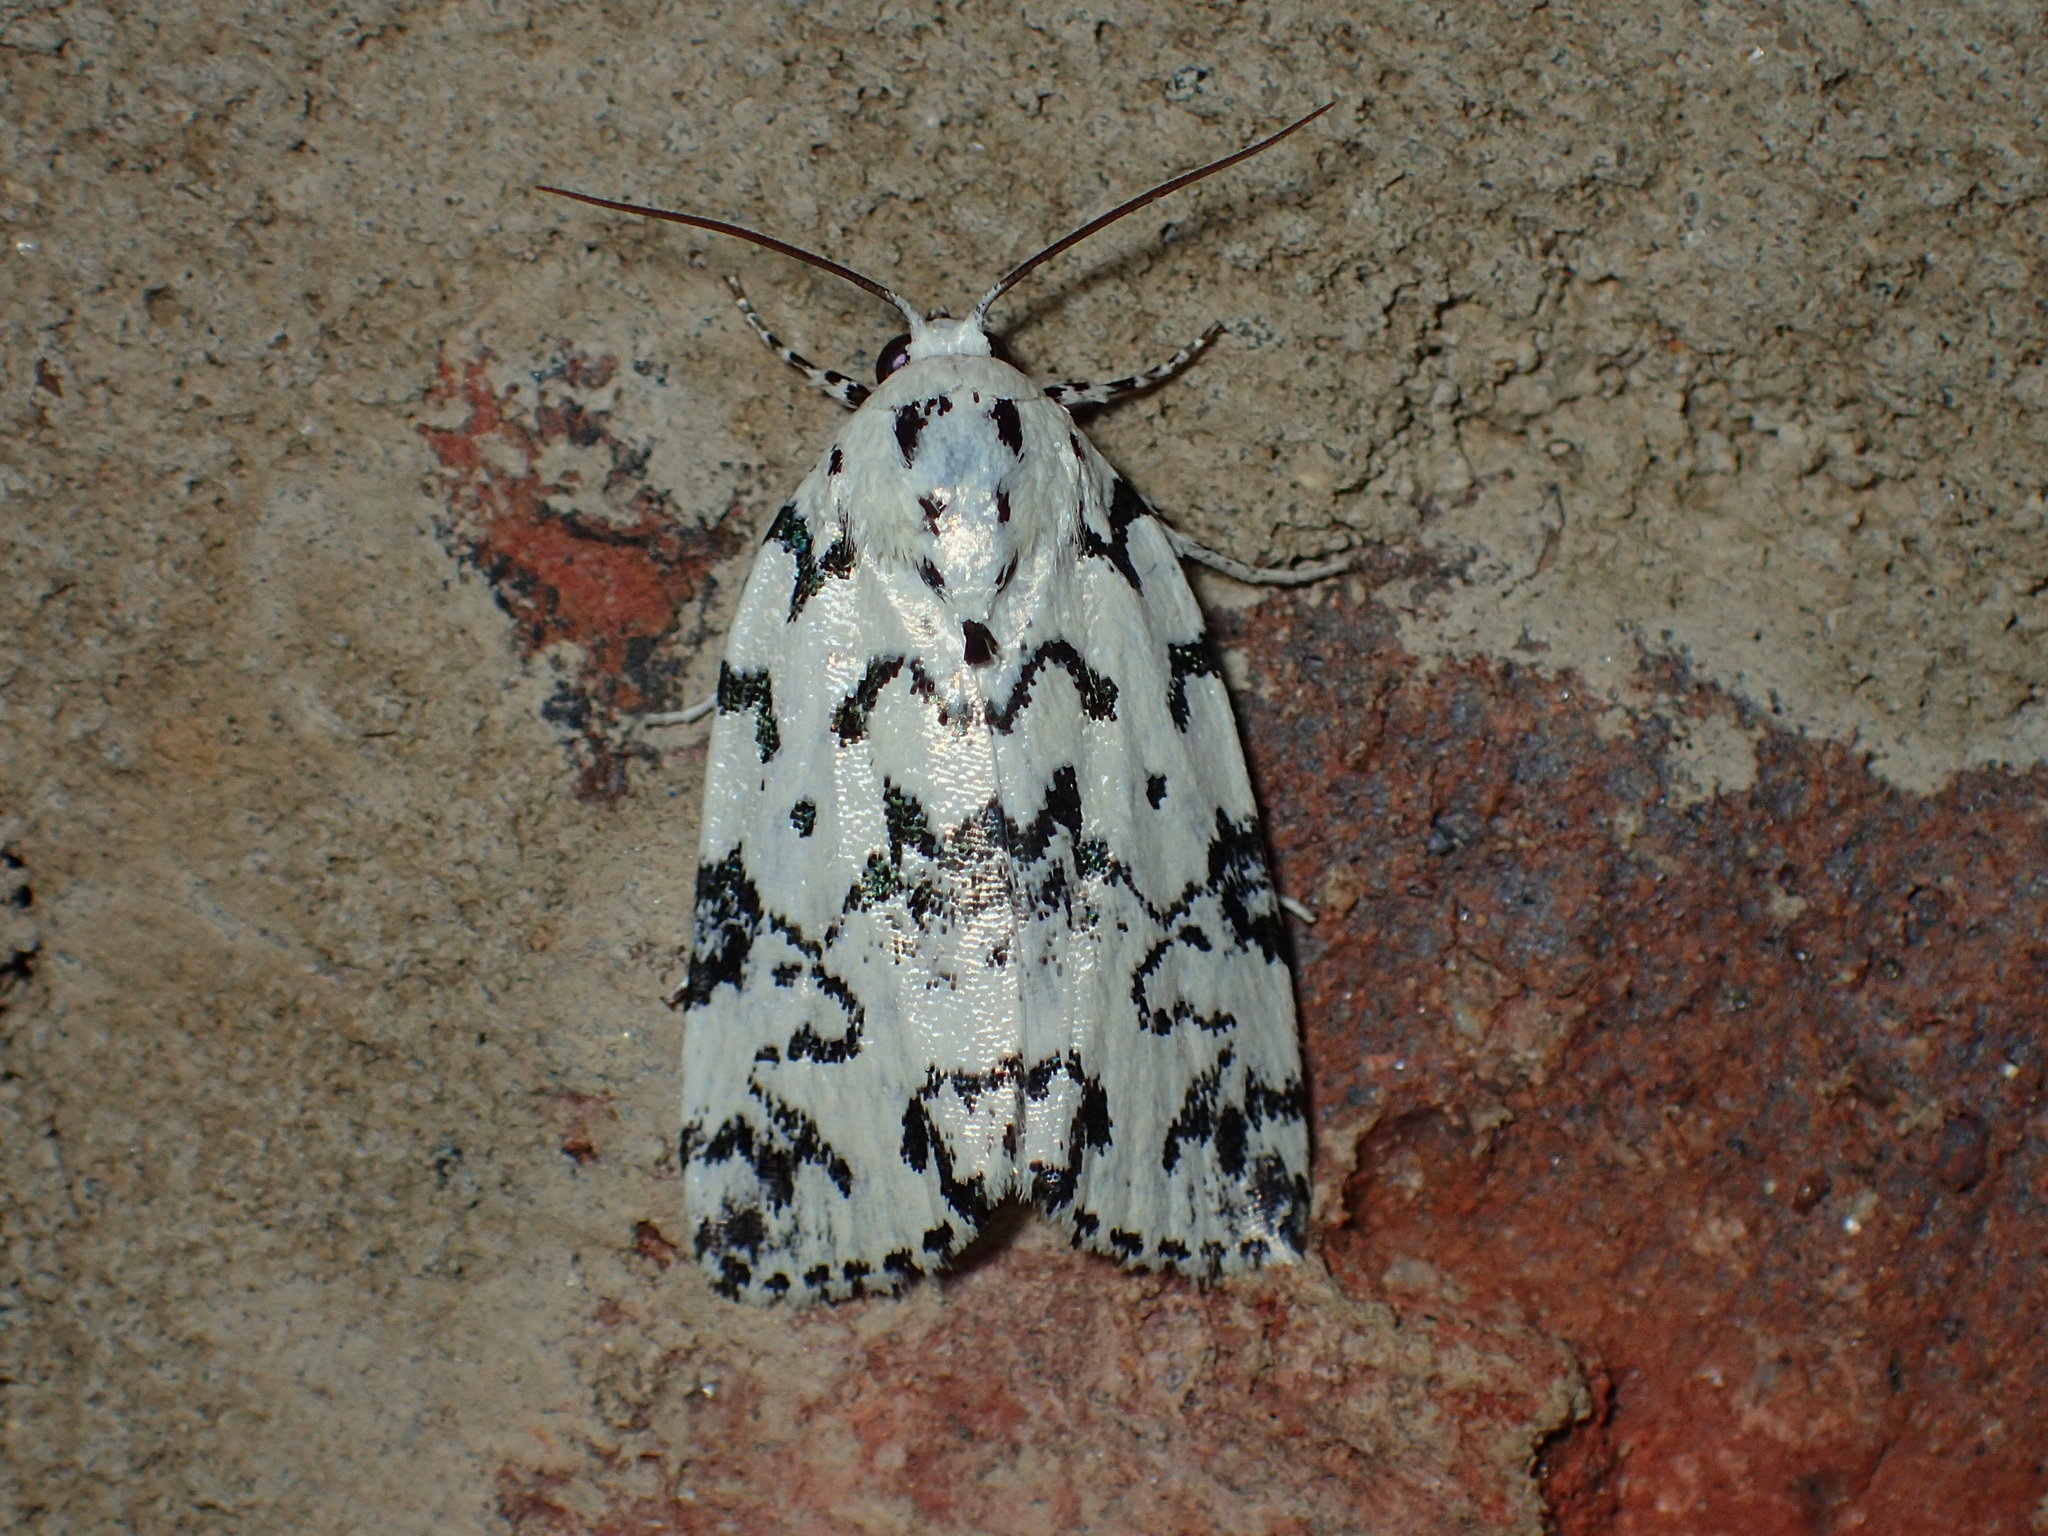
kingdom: Animalia
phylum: Arthropoda
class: Insecta
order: Lepidoptera
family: Noctuidae
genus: Polygrammate
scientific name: Polygrammate hebraeicum
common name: Hebrew moth
